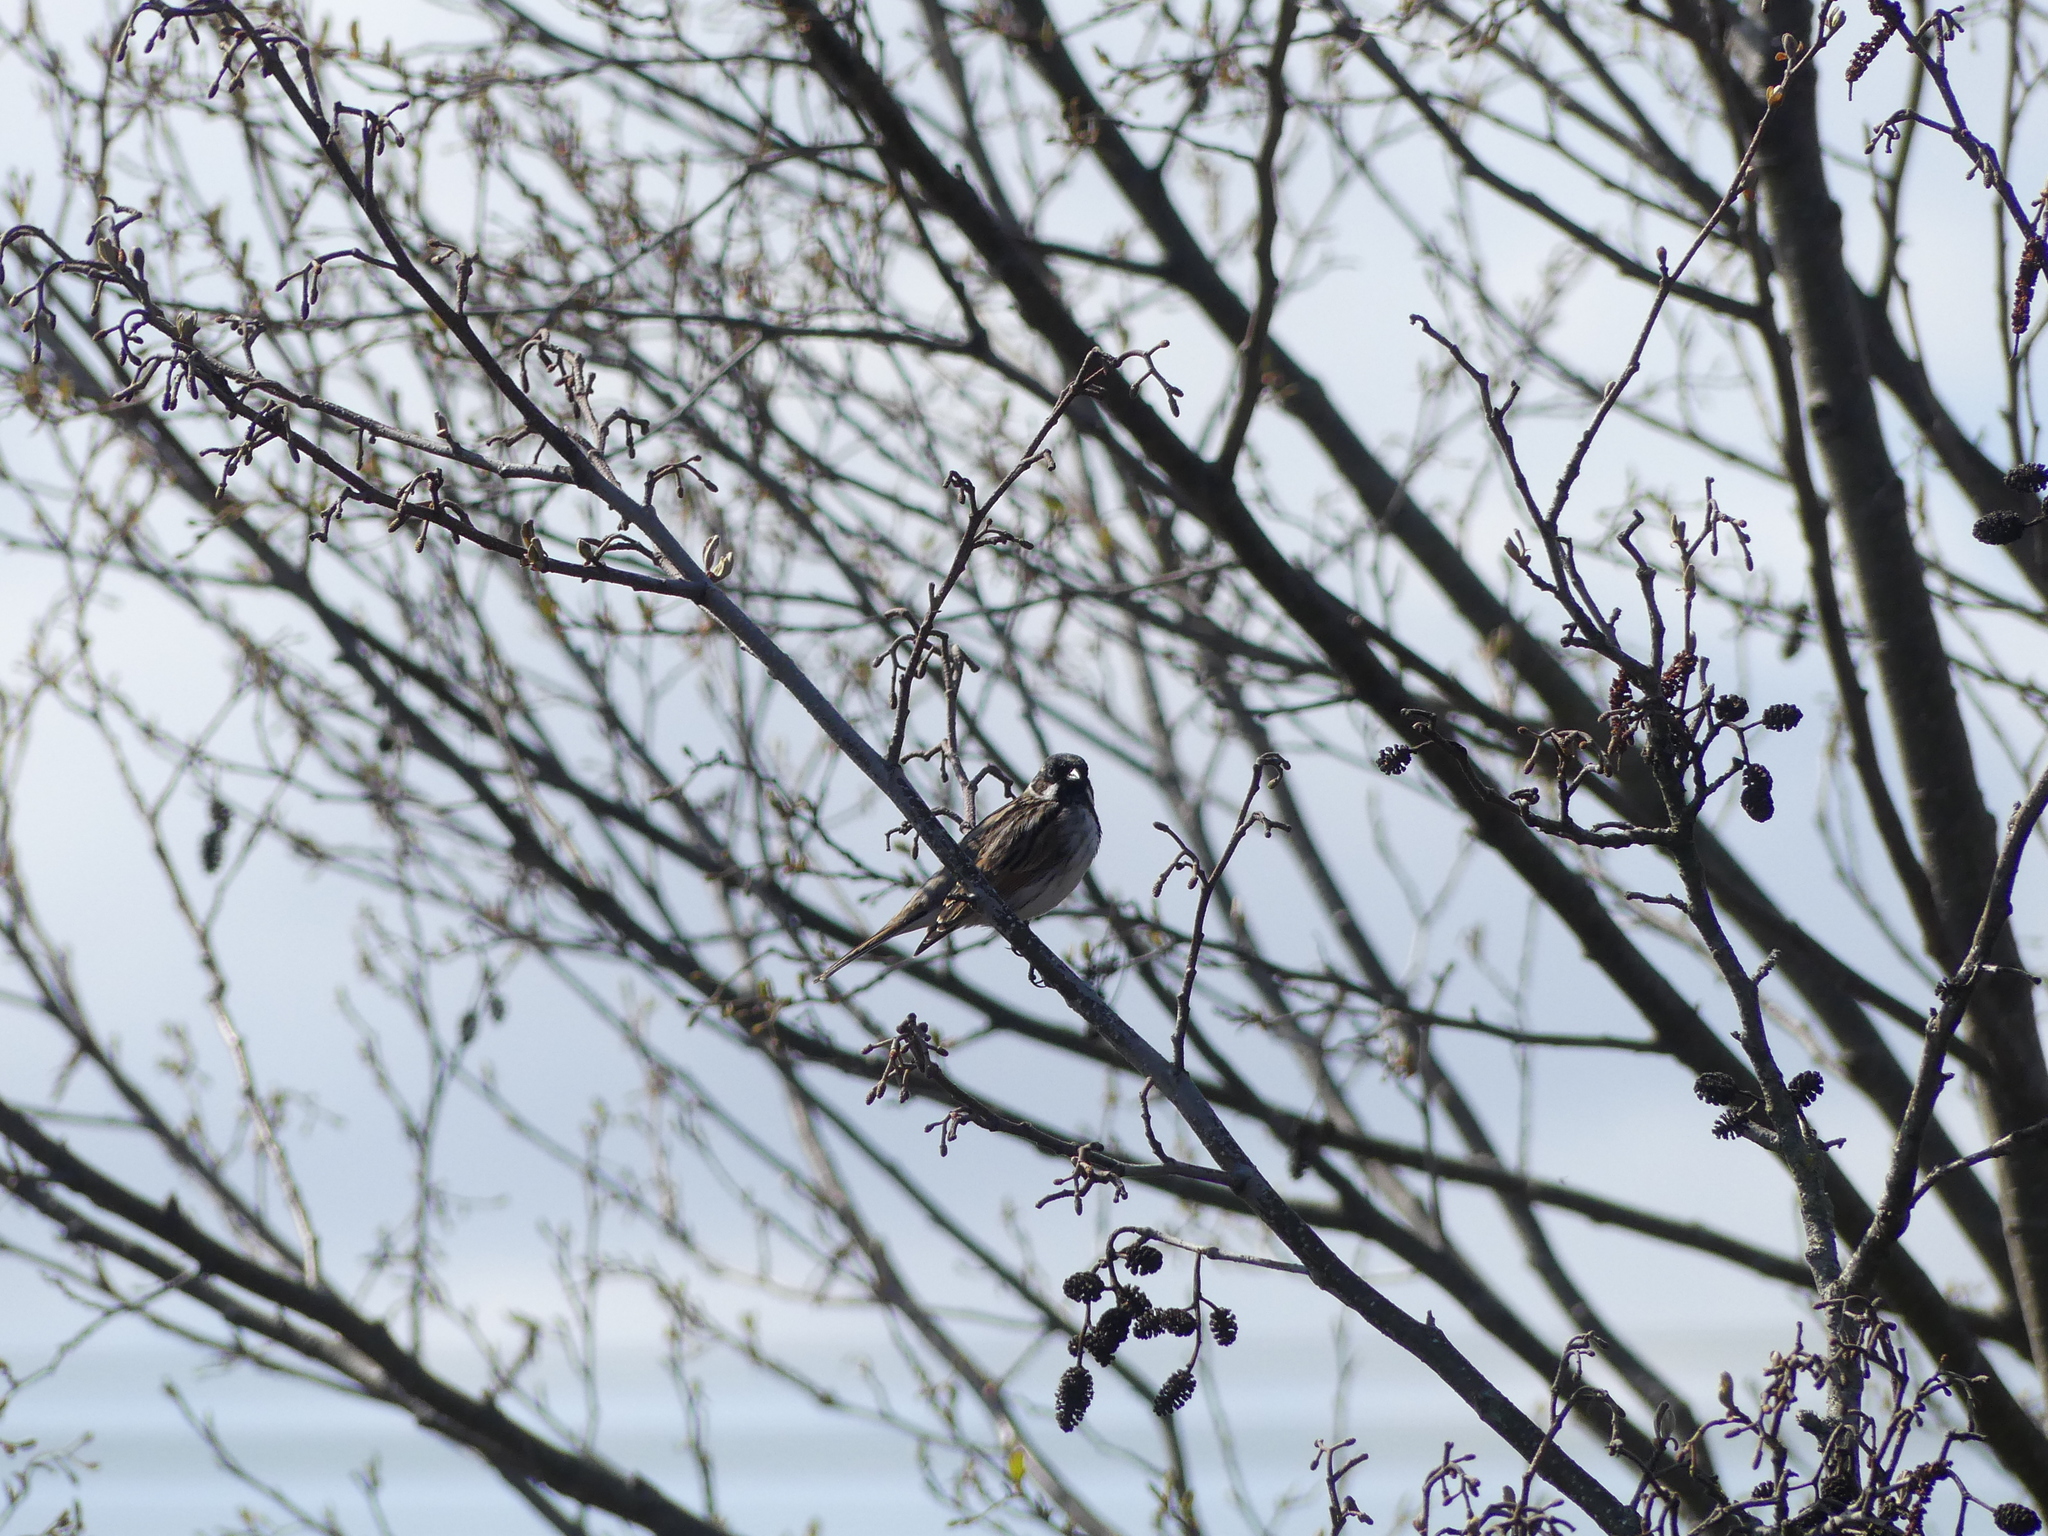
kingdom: Animalia
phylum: Chordata
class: Aves
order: Passeriformes
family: Emberizidae
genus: Emberiza
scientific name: Emberiza schoeniclus
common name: Reed bunting
